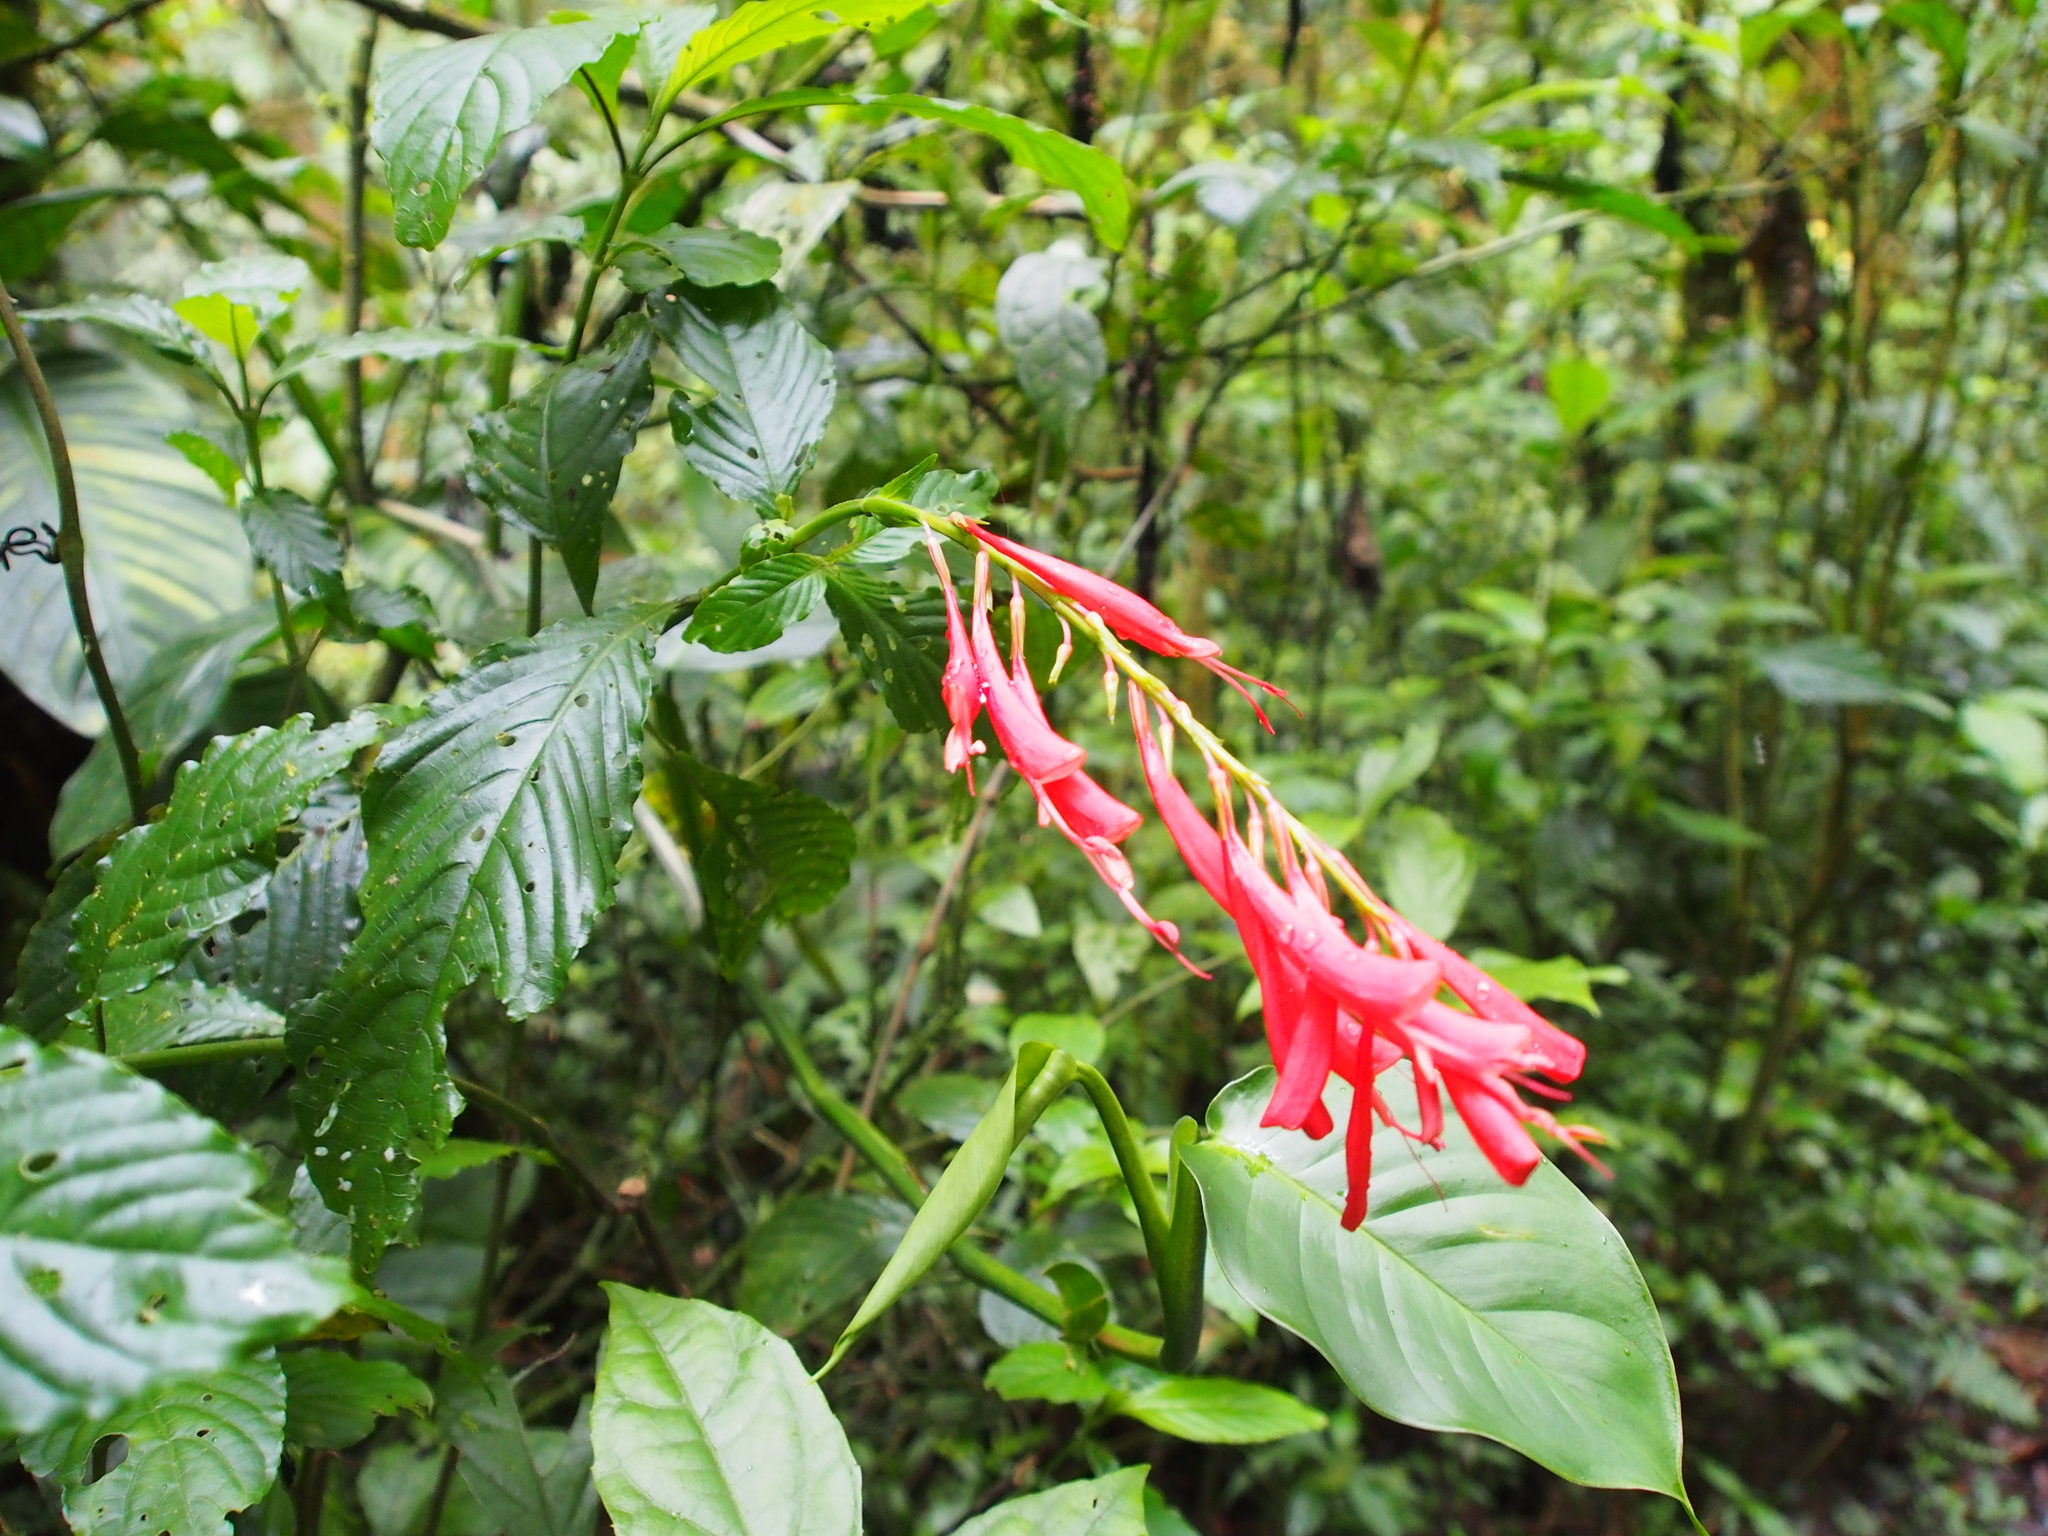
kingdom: Plantae
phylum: Tracheophyta
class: Magnoliopsida
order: Lamiales
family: Acanthaceae
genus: Stenostephanus
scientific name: Stenostephanus leiorhachis
